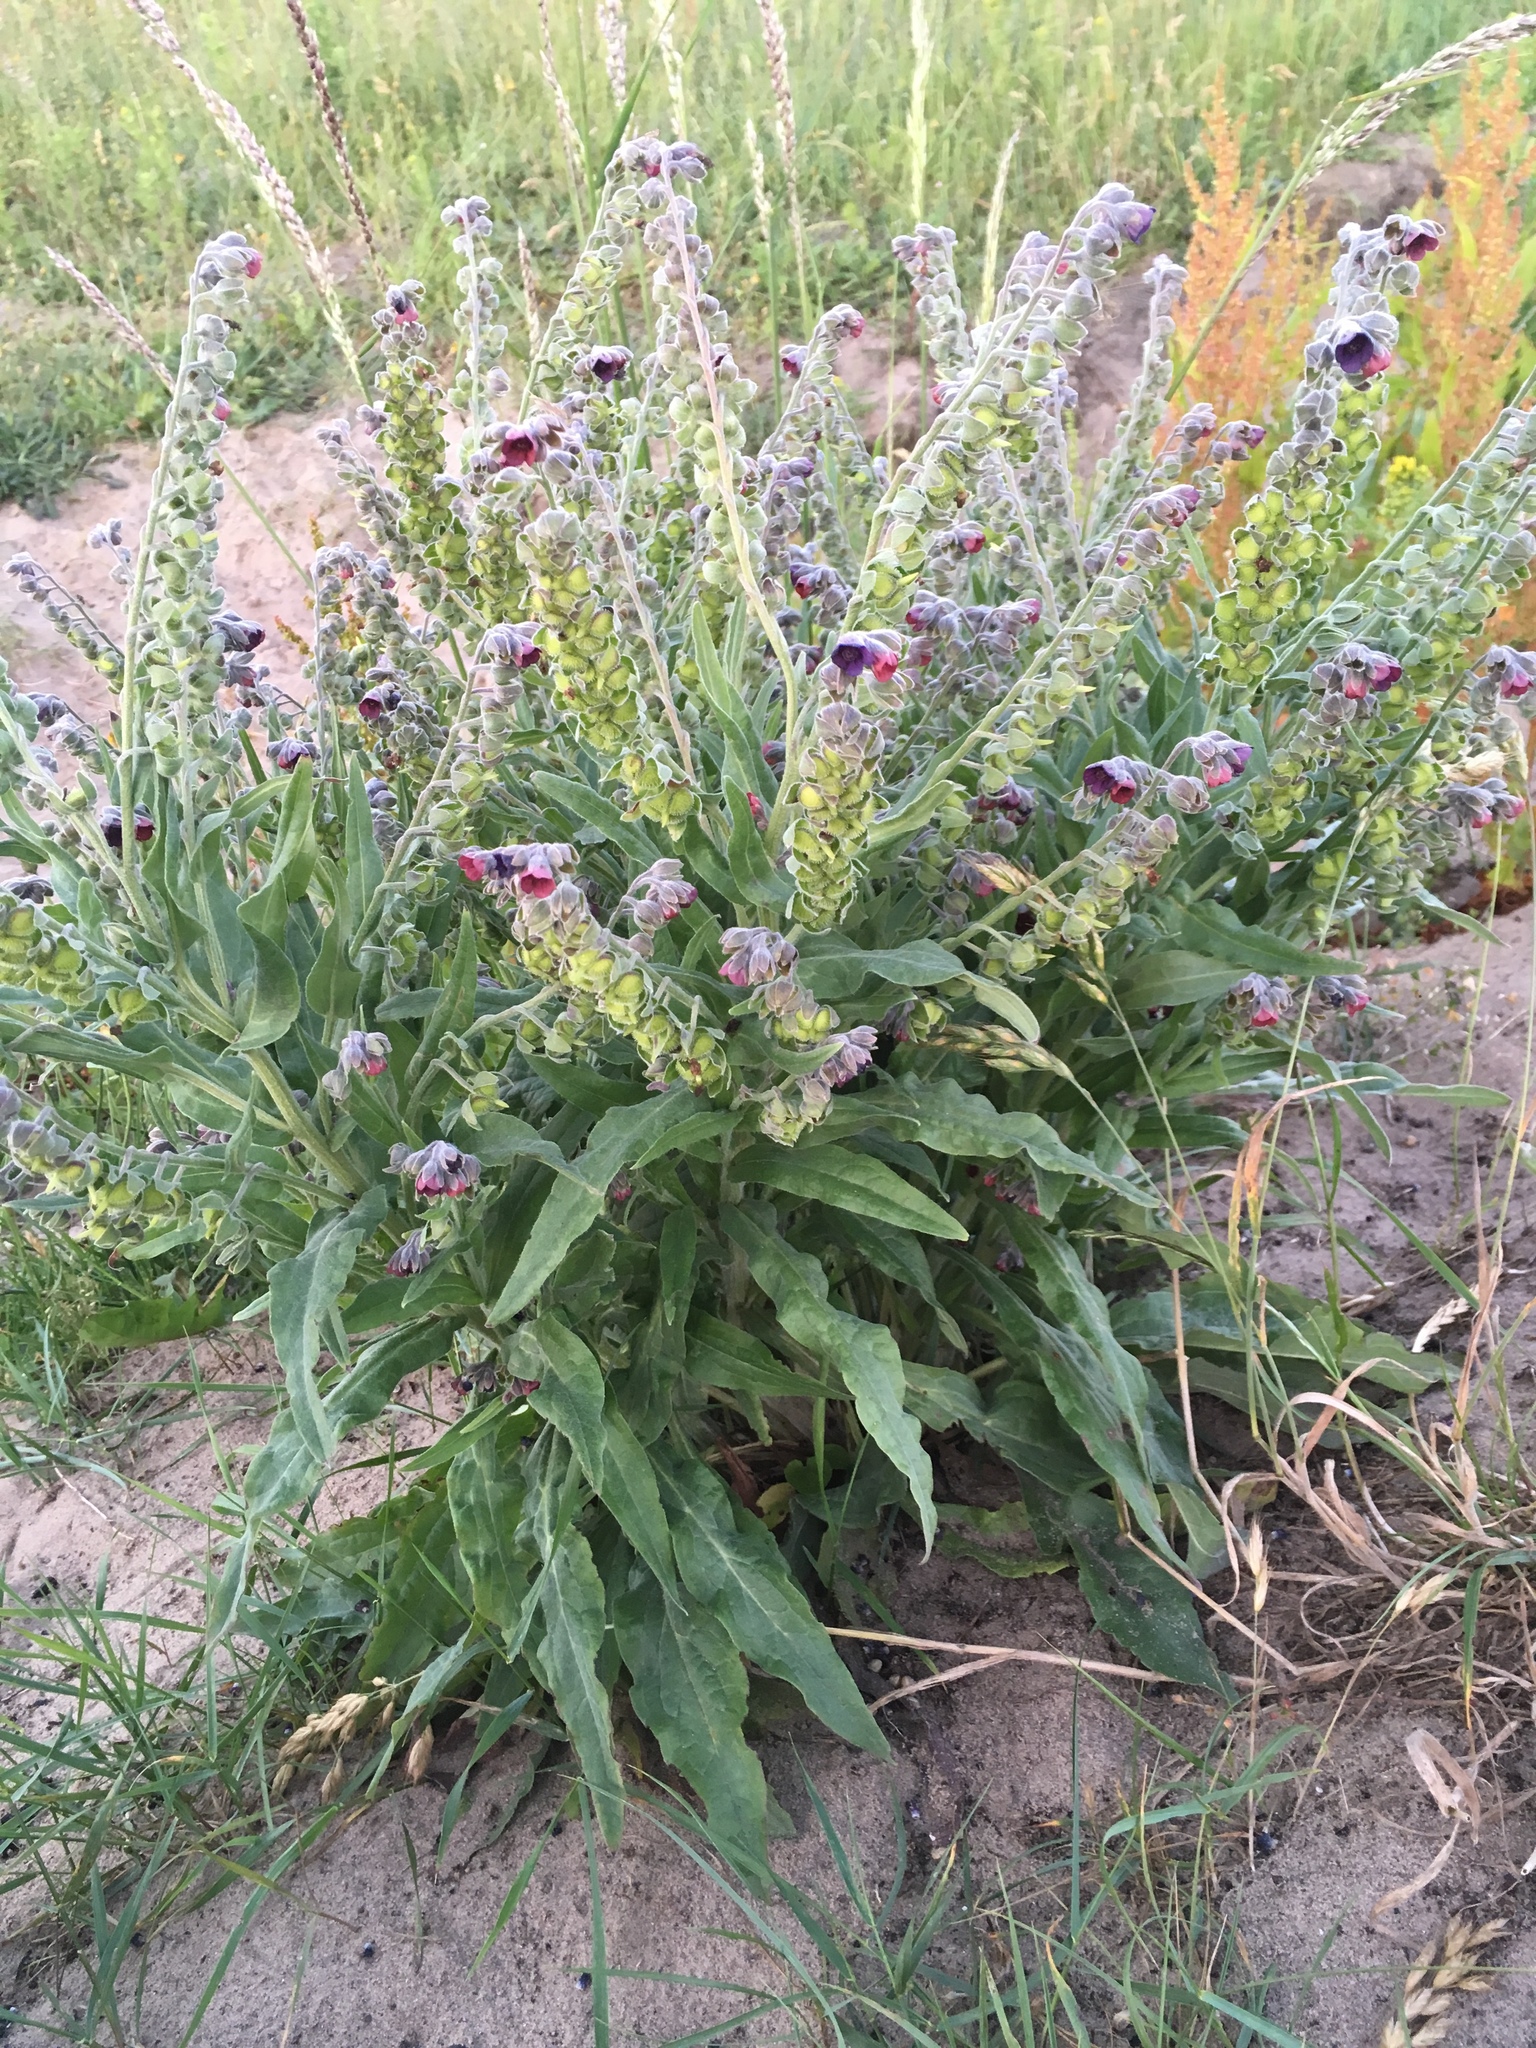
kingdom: Plantae
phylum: Tracheophyta
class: Magnoliopsida
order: Boraginales
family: Boraginaceae
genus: Cynoglossum
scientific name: Cynoglossum officinale
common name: Hound's-tongue
